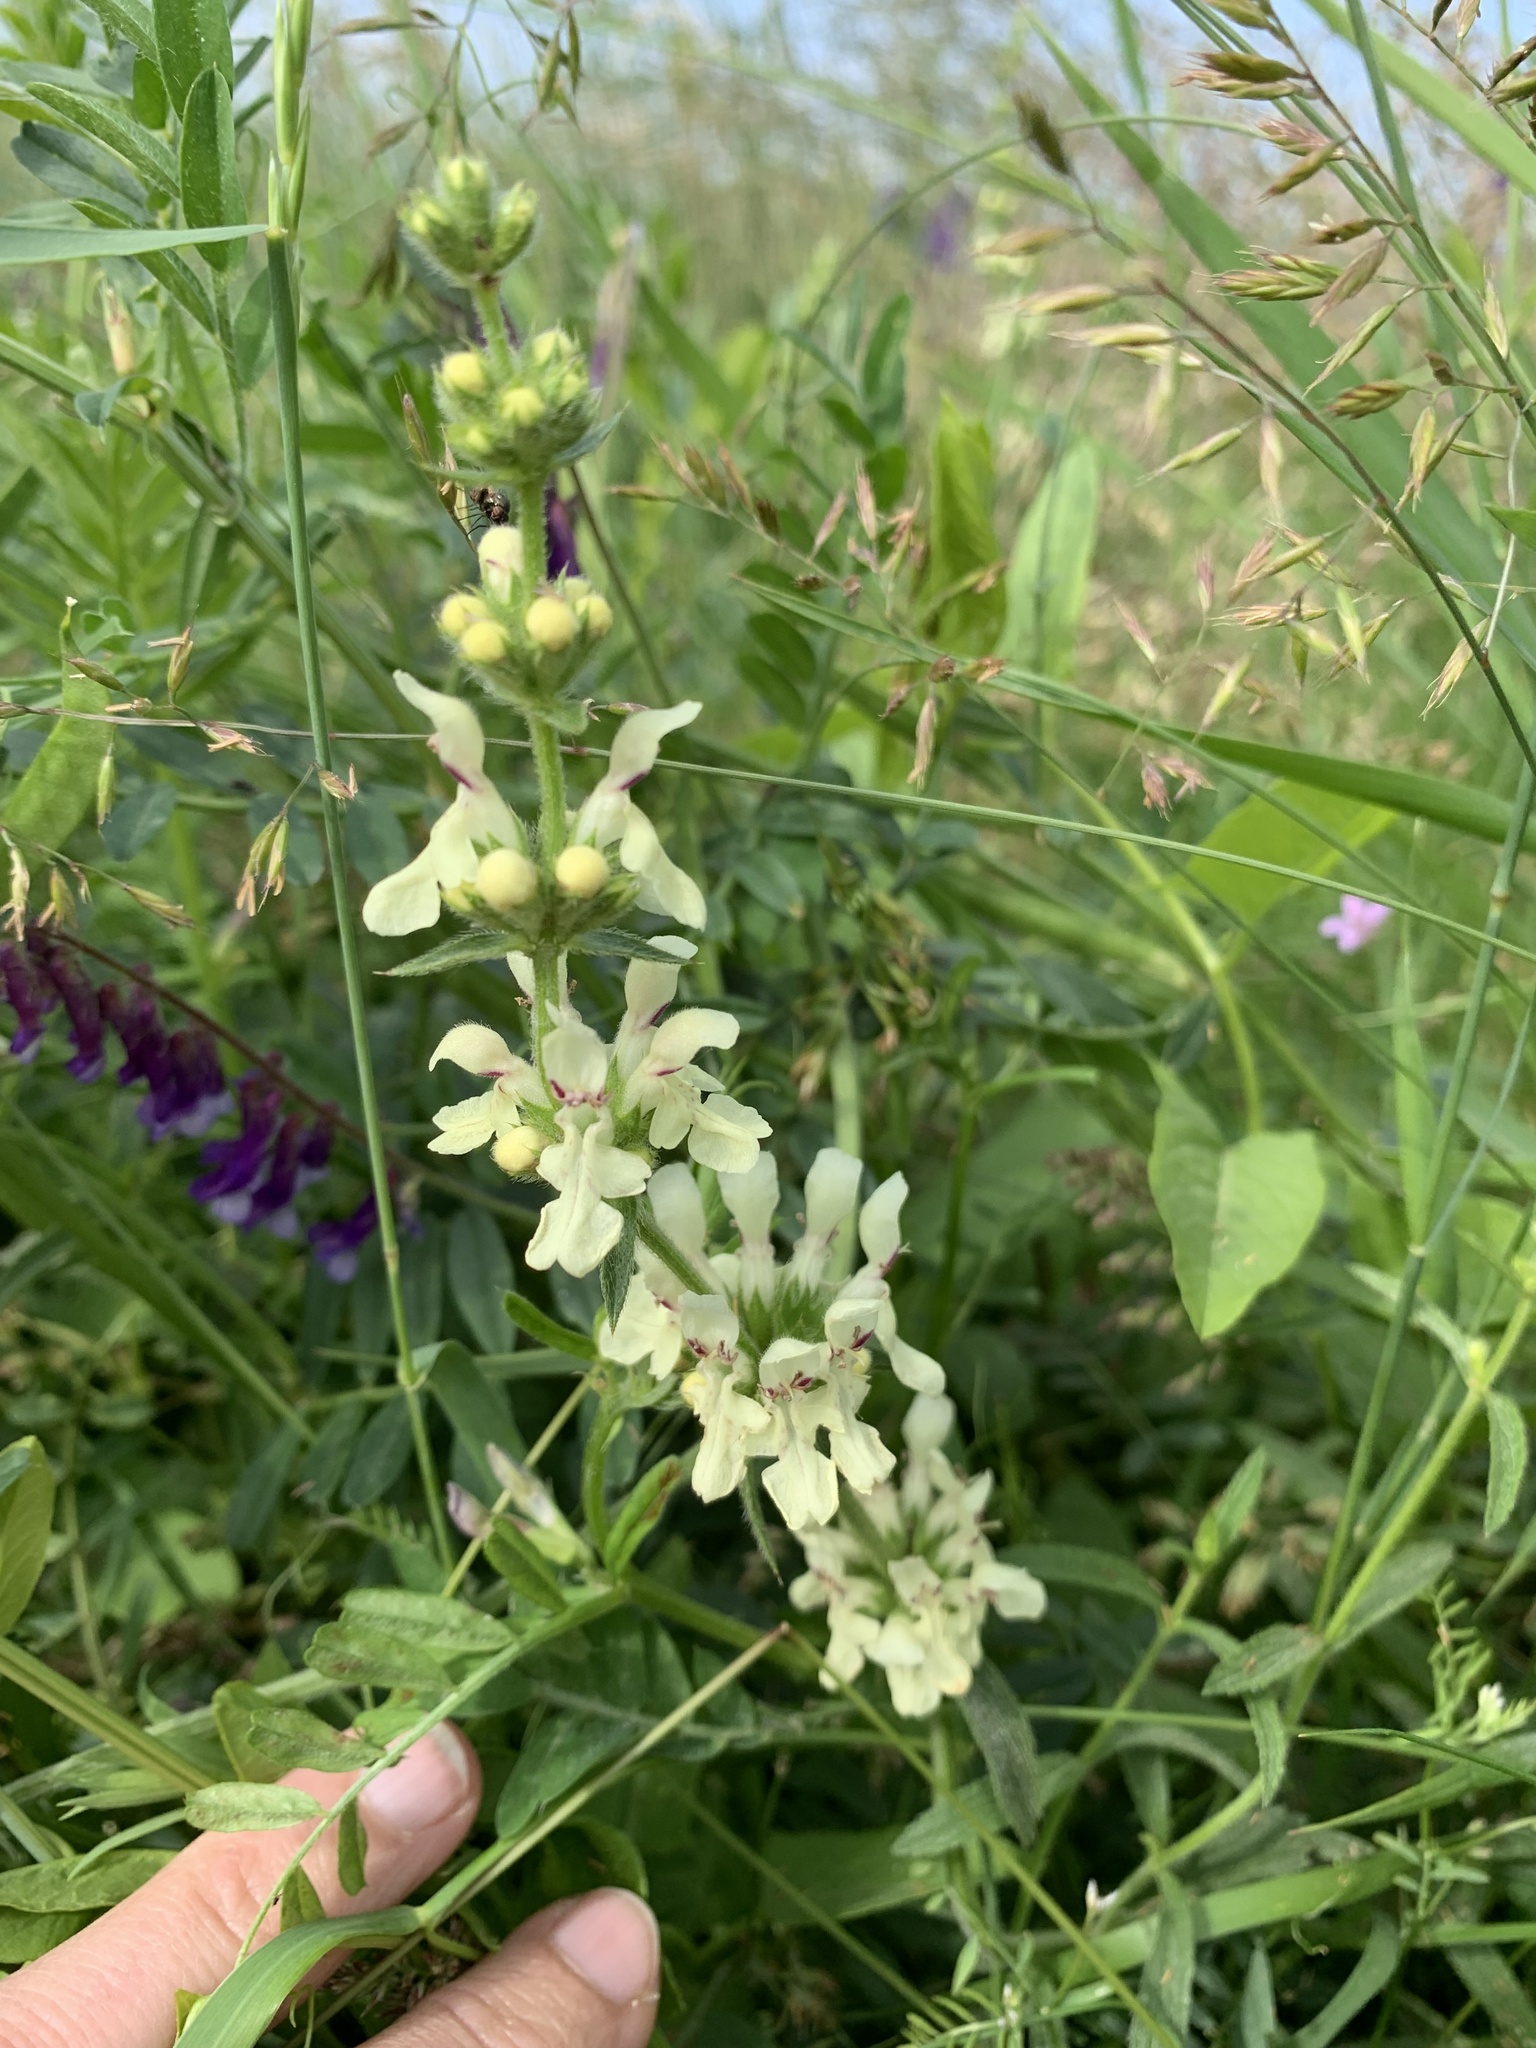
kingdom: Plantae
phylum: Tracheophyta
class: Magnoliopsida
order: Lamiales
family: Lamiaceae
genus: Stachys
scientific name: Stachys recta
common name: Perennial yellow-woundwort
